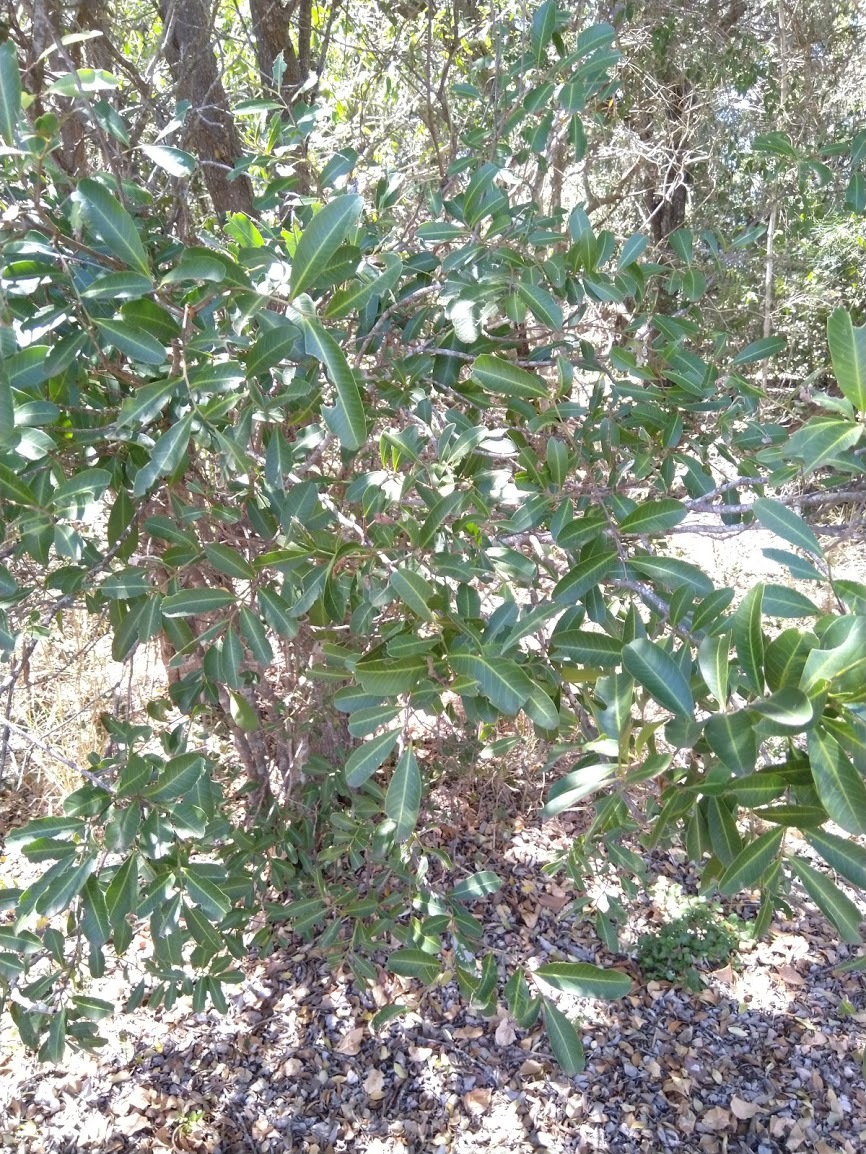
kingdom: Plantae
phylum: Tracheophyta
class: Magnoliopsida
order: Sapindales
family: Sapindaceae
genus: Cupaniopsis
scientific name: Cupaniopsis parvifolia
